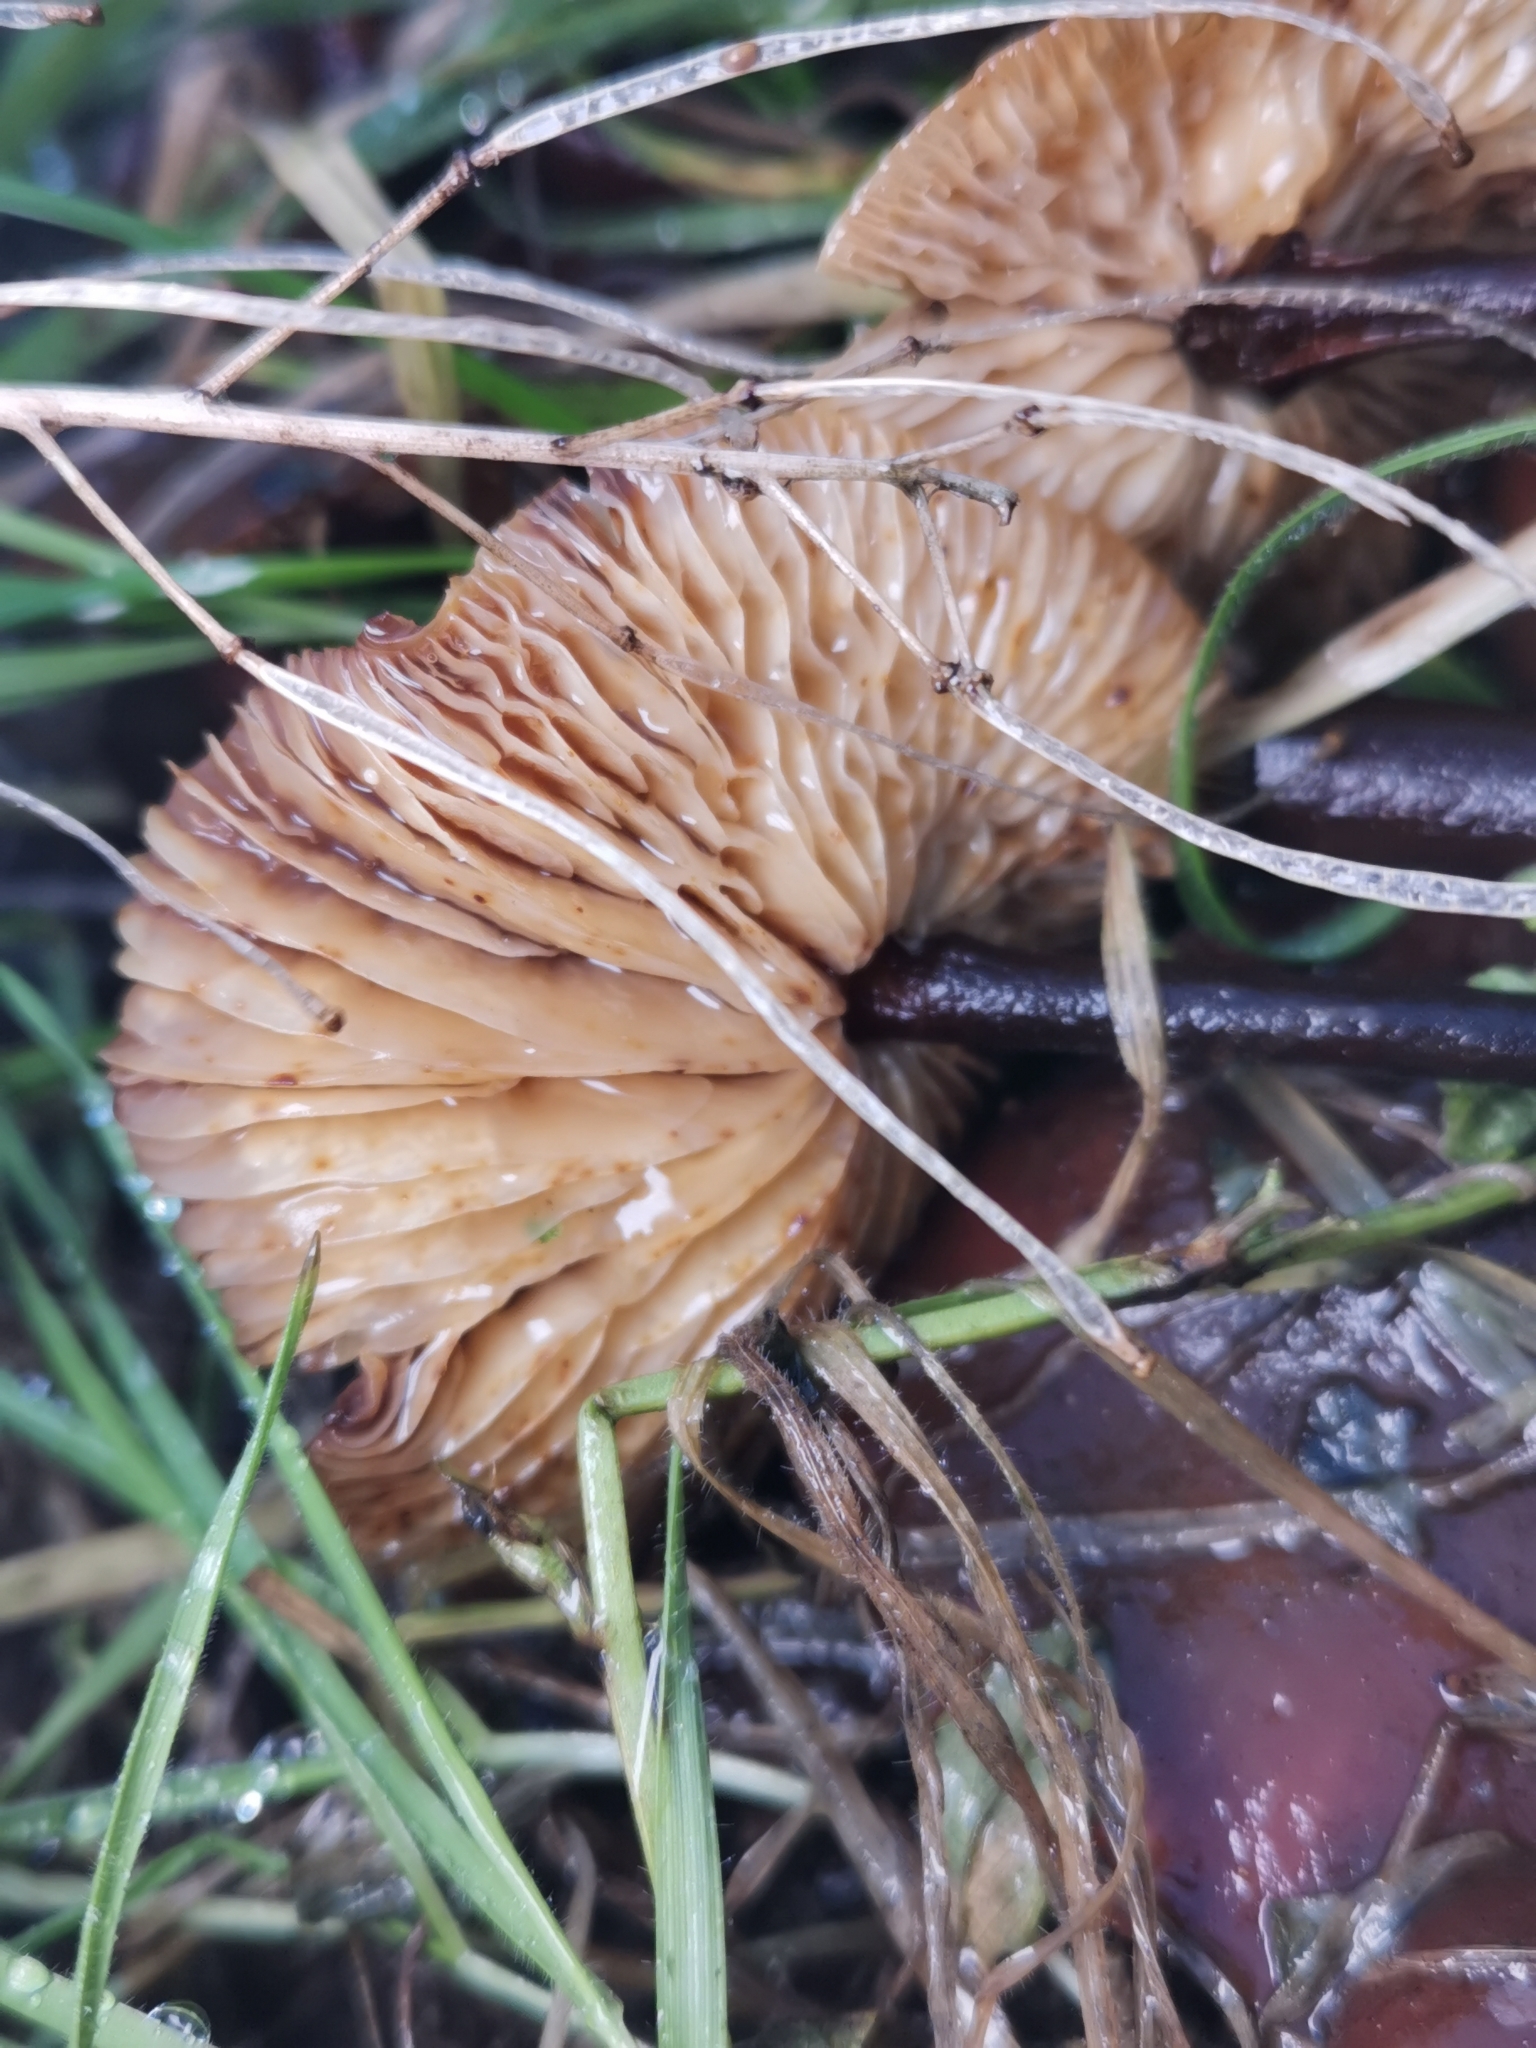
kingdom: Fungi
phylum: Basidiomycota
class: Agaricomycetes
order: Agaricales
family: Physalacriaceae
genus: Flammulina
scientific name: Flammulina
